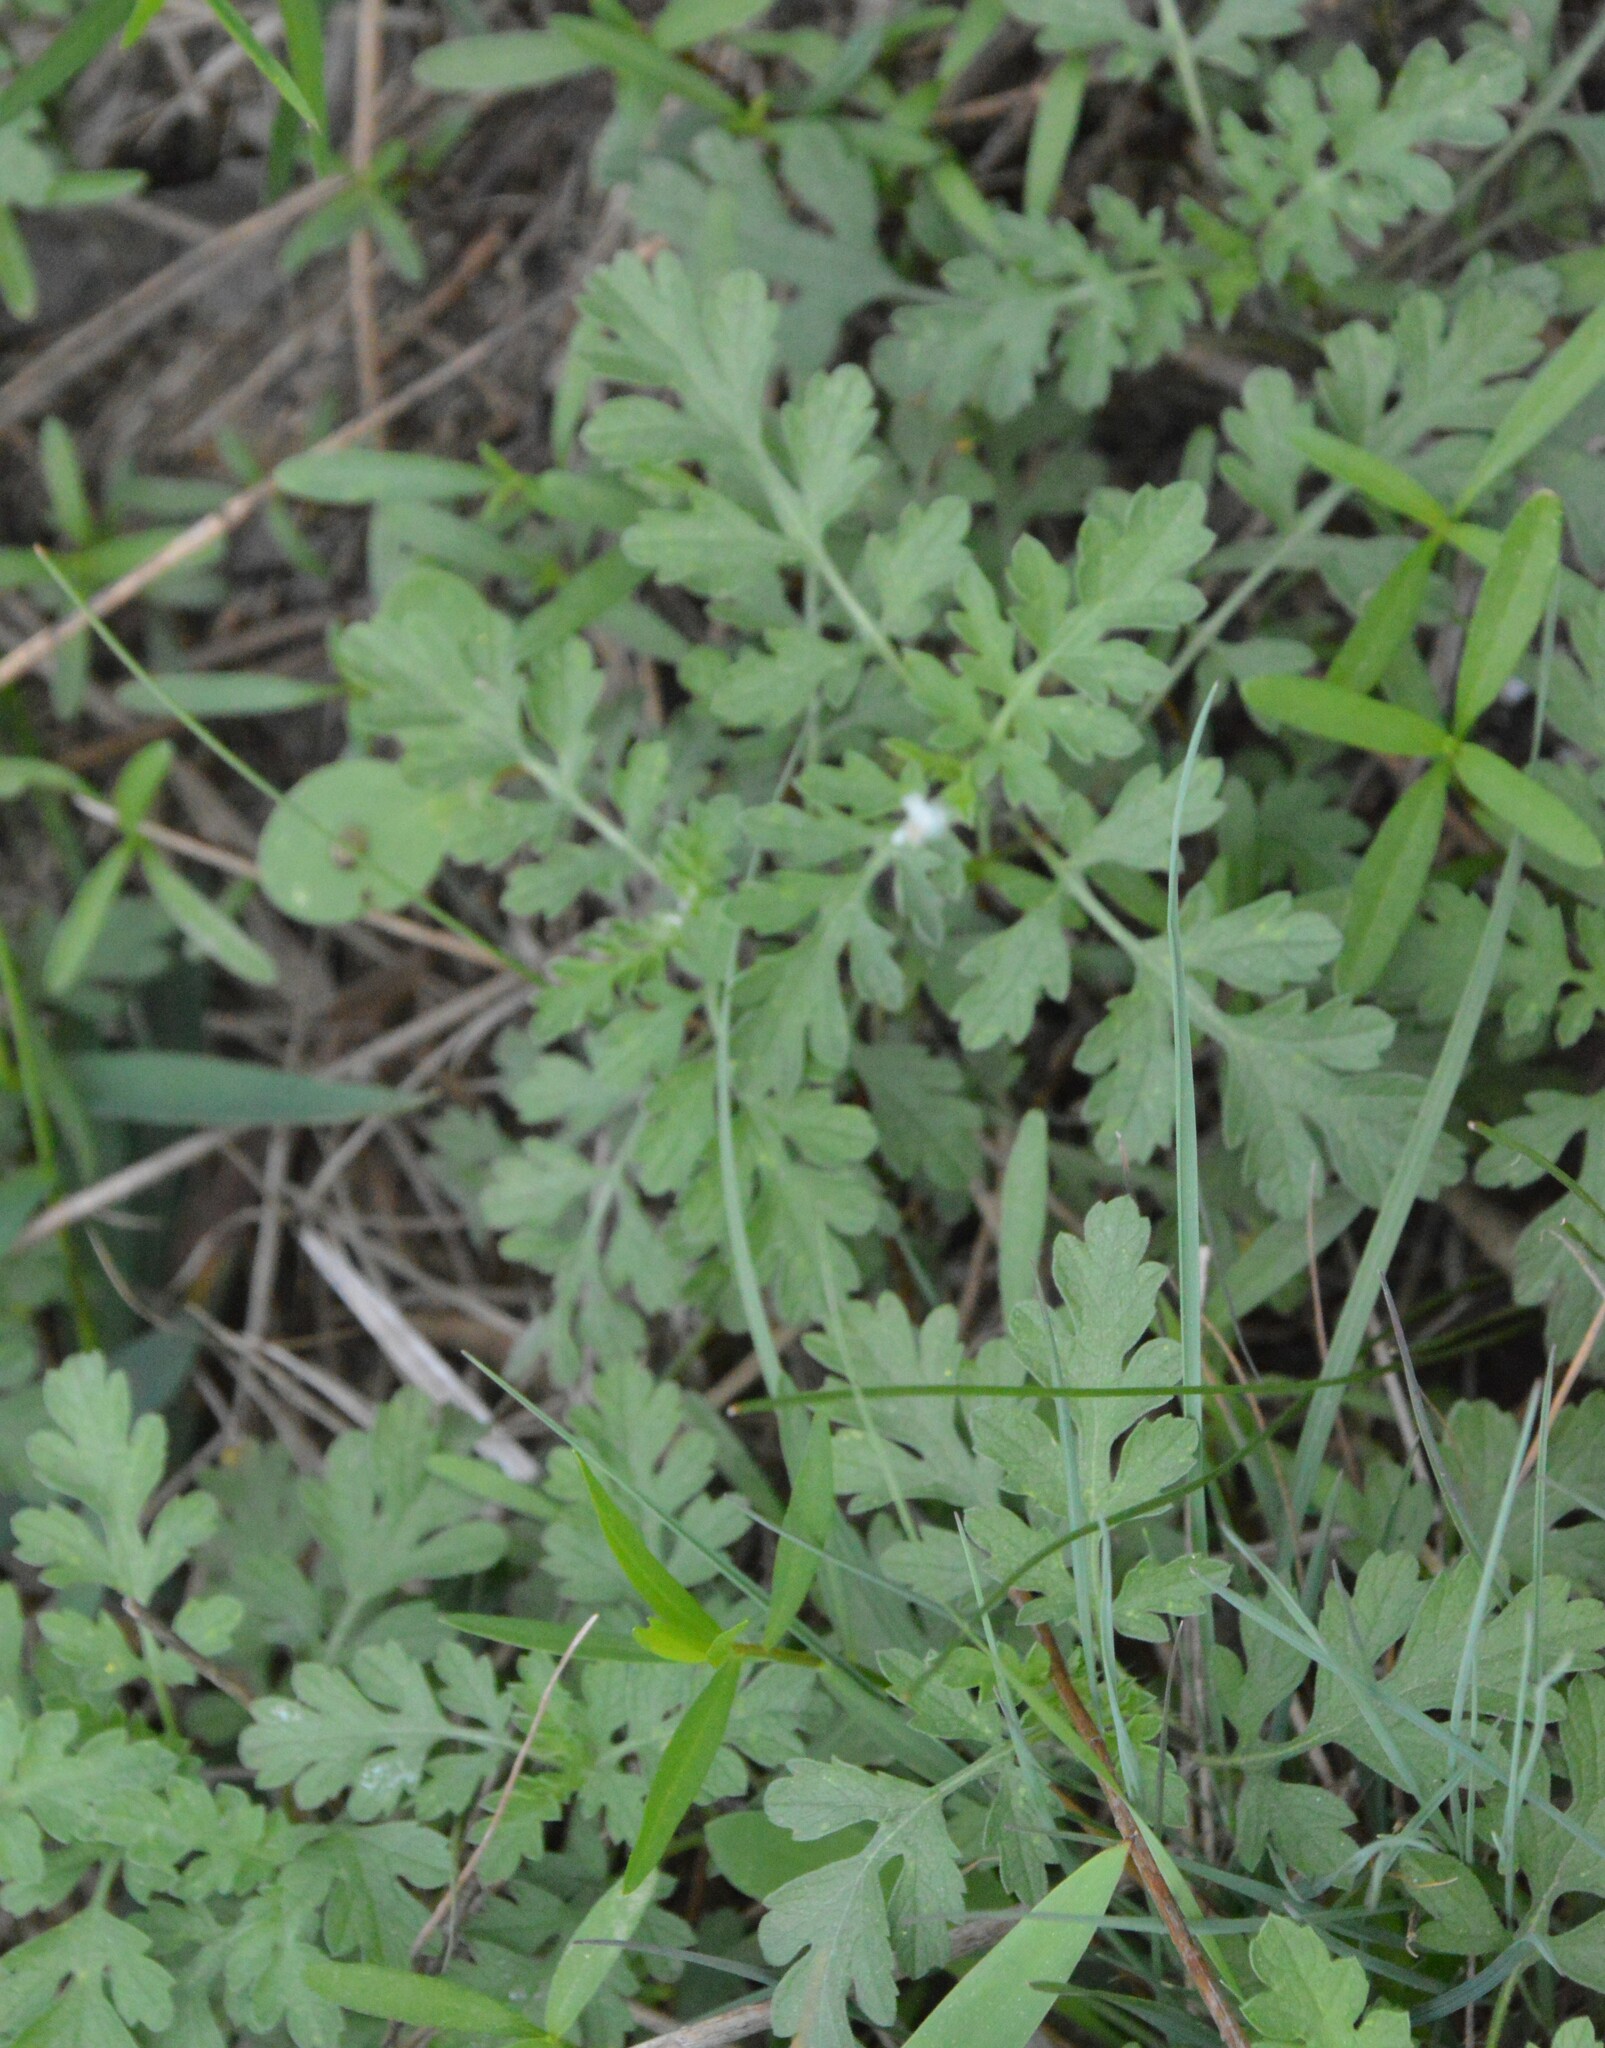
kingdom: Plantae
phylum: Tracheophyta
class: Magnoliopsida
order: Asterales
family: Asteraceae
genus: Ambrosia
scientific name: Ambrosia psilostachya
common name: Perennial ragweed
